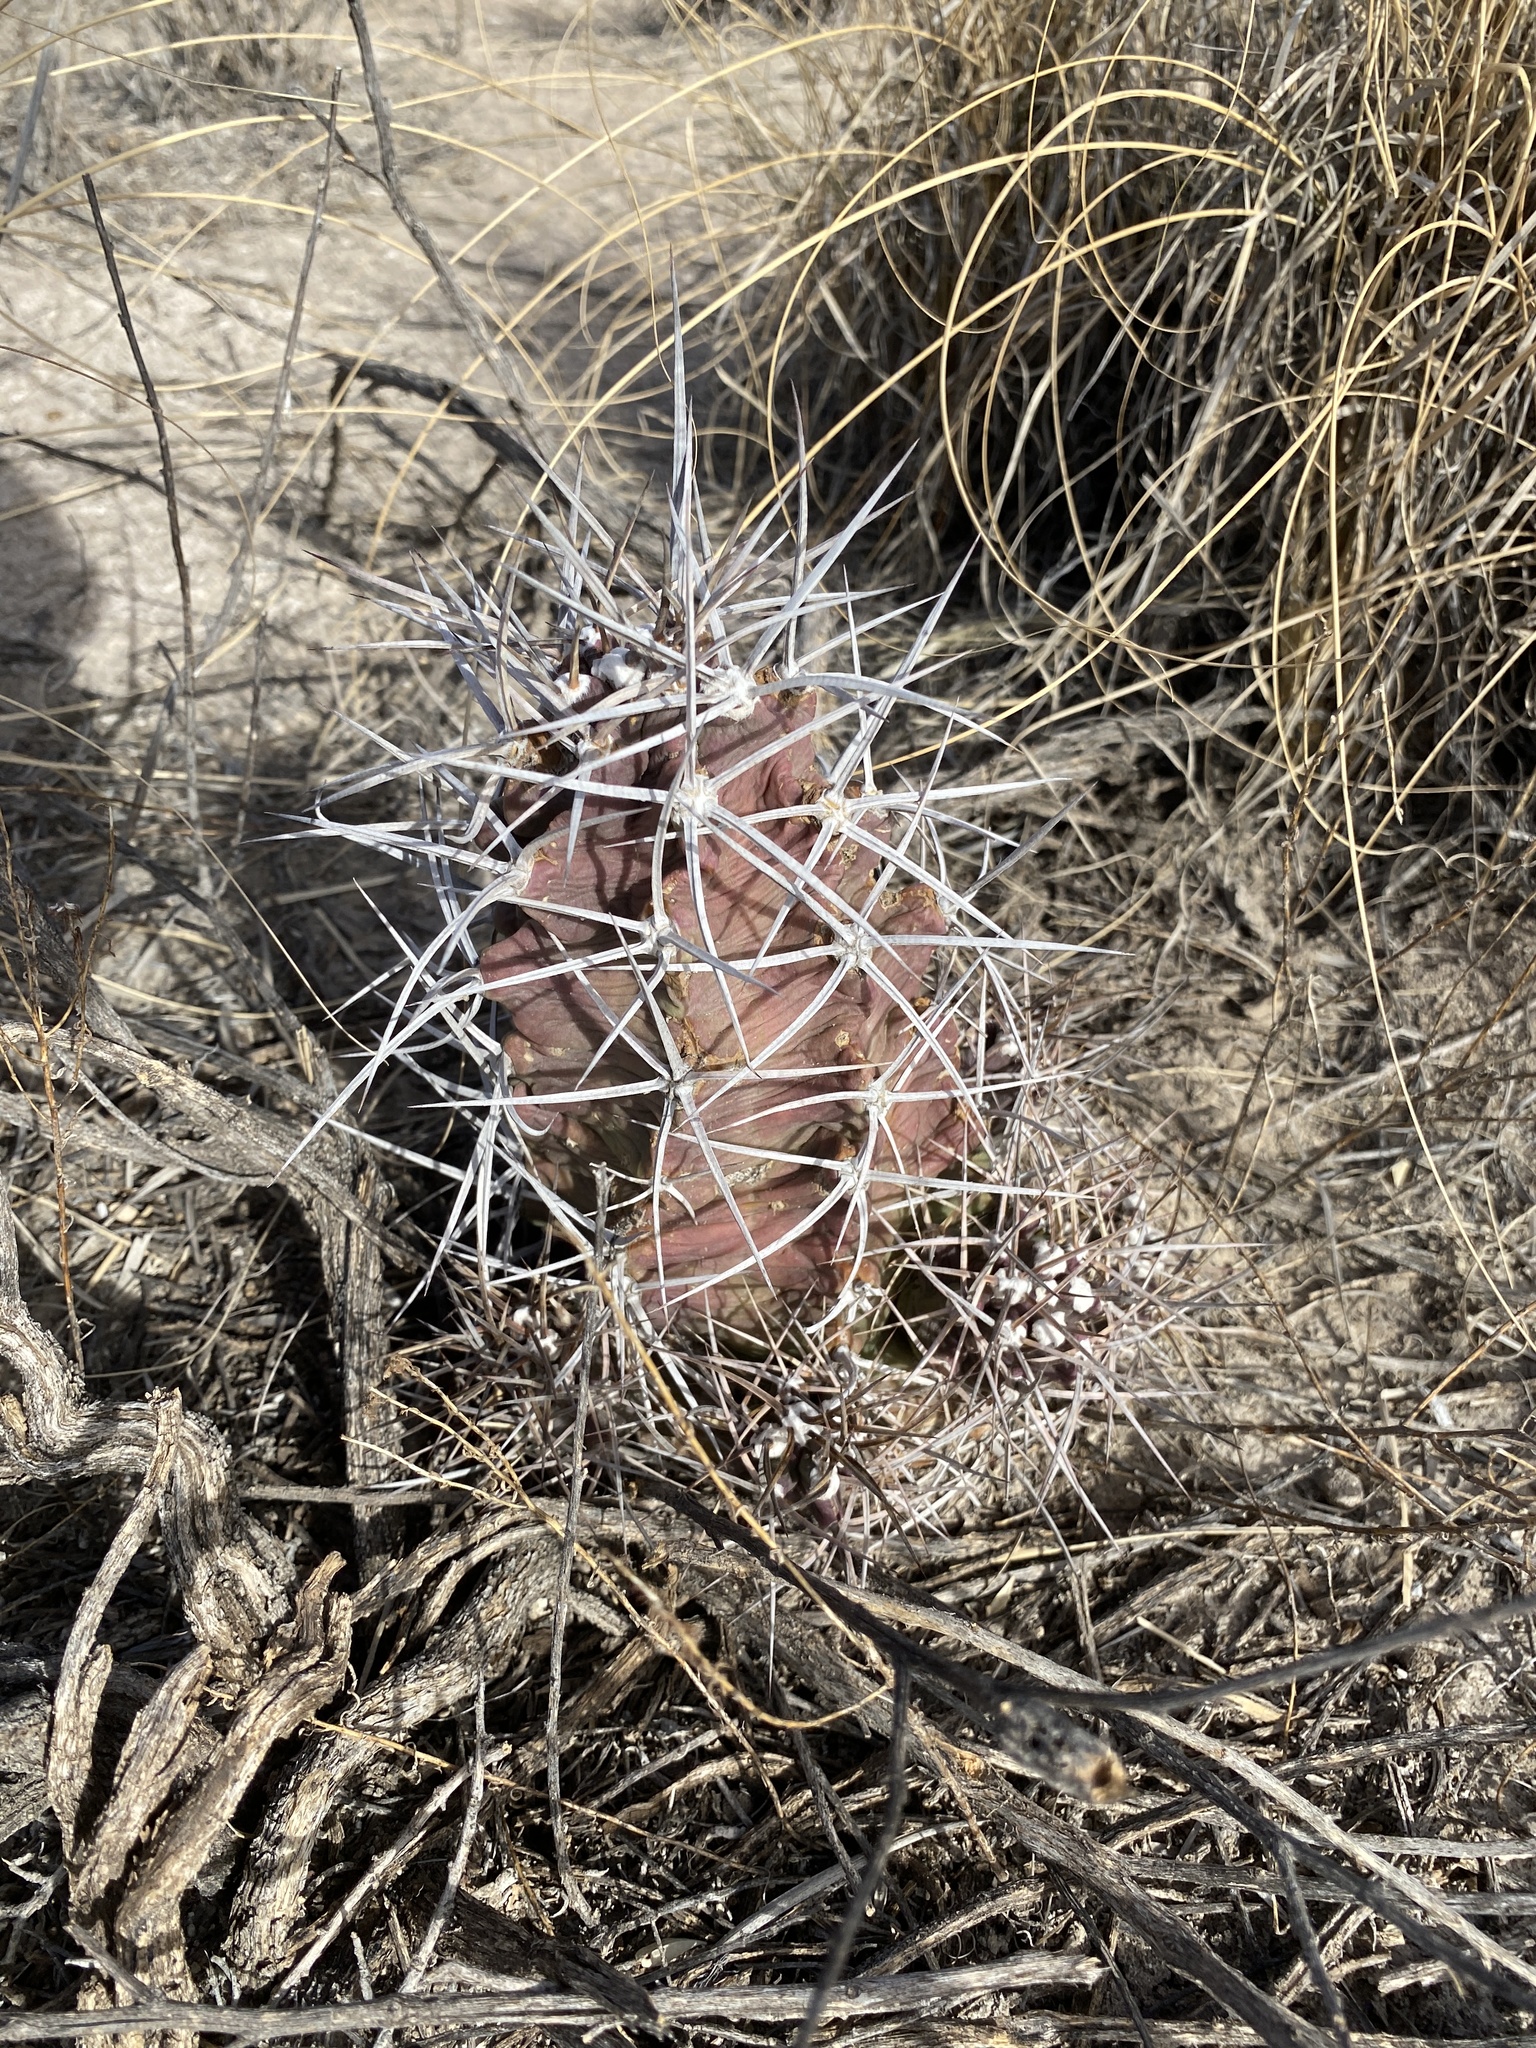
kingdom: Plantae
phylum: Tracheophyta
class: Magnoliopsida
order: Caryophyllales
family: Cactaceae
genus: Echinocereus
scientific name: Echinocereus triglochidiatus
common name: Claretcup hedgehog
